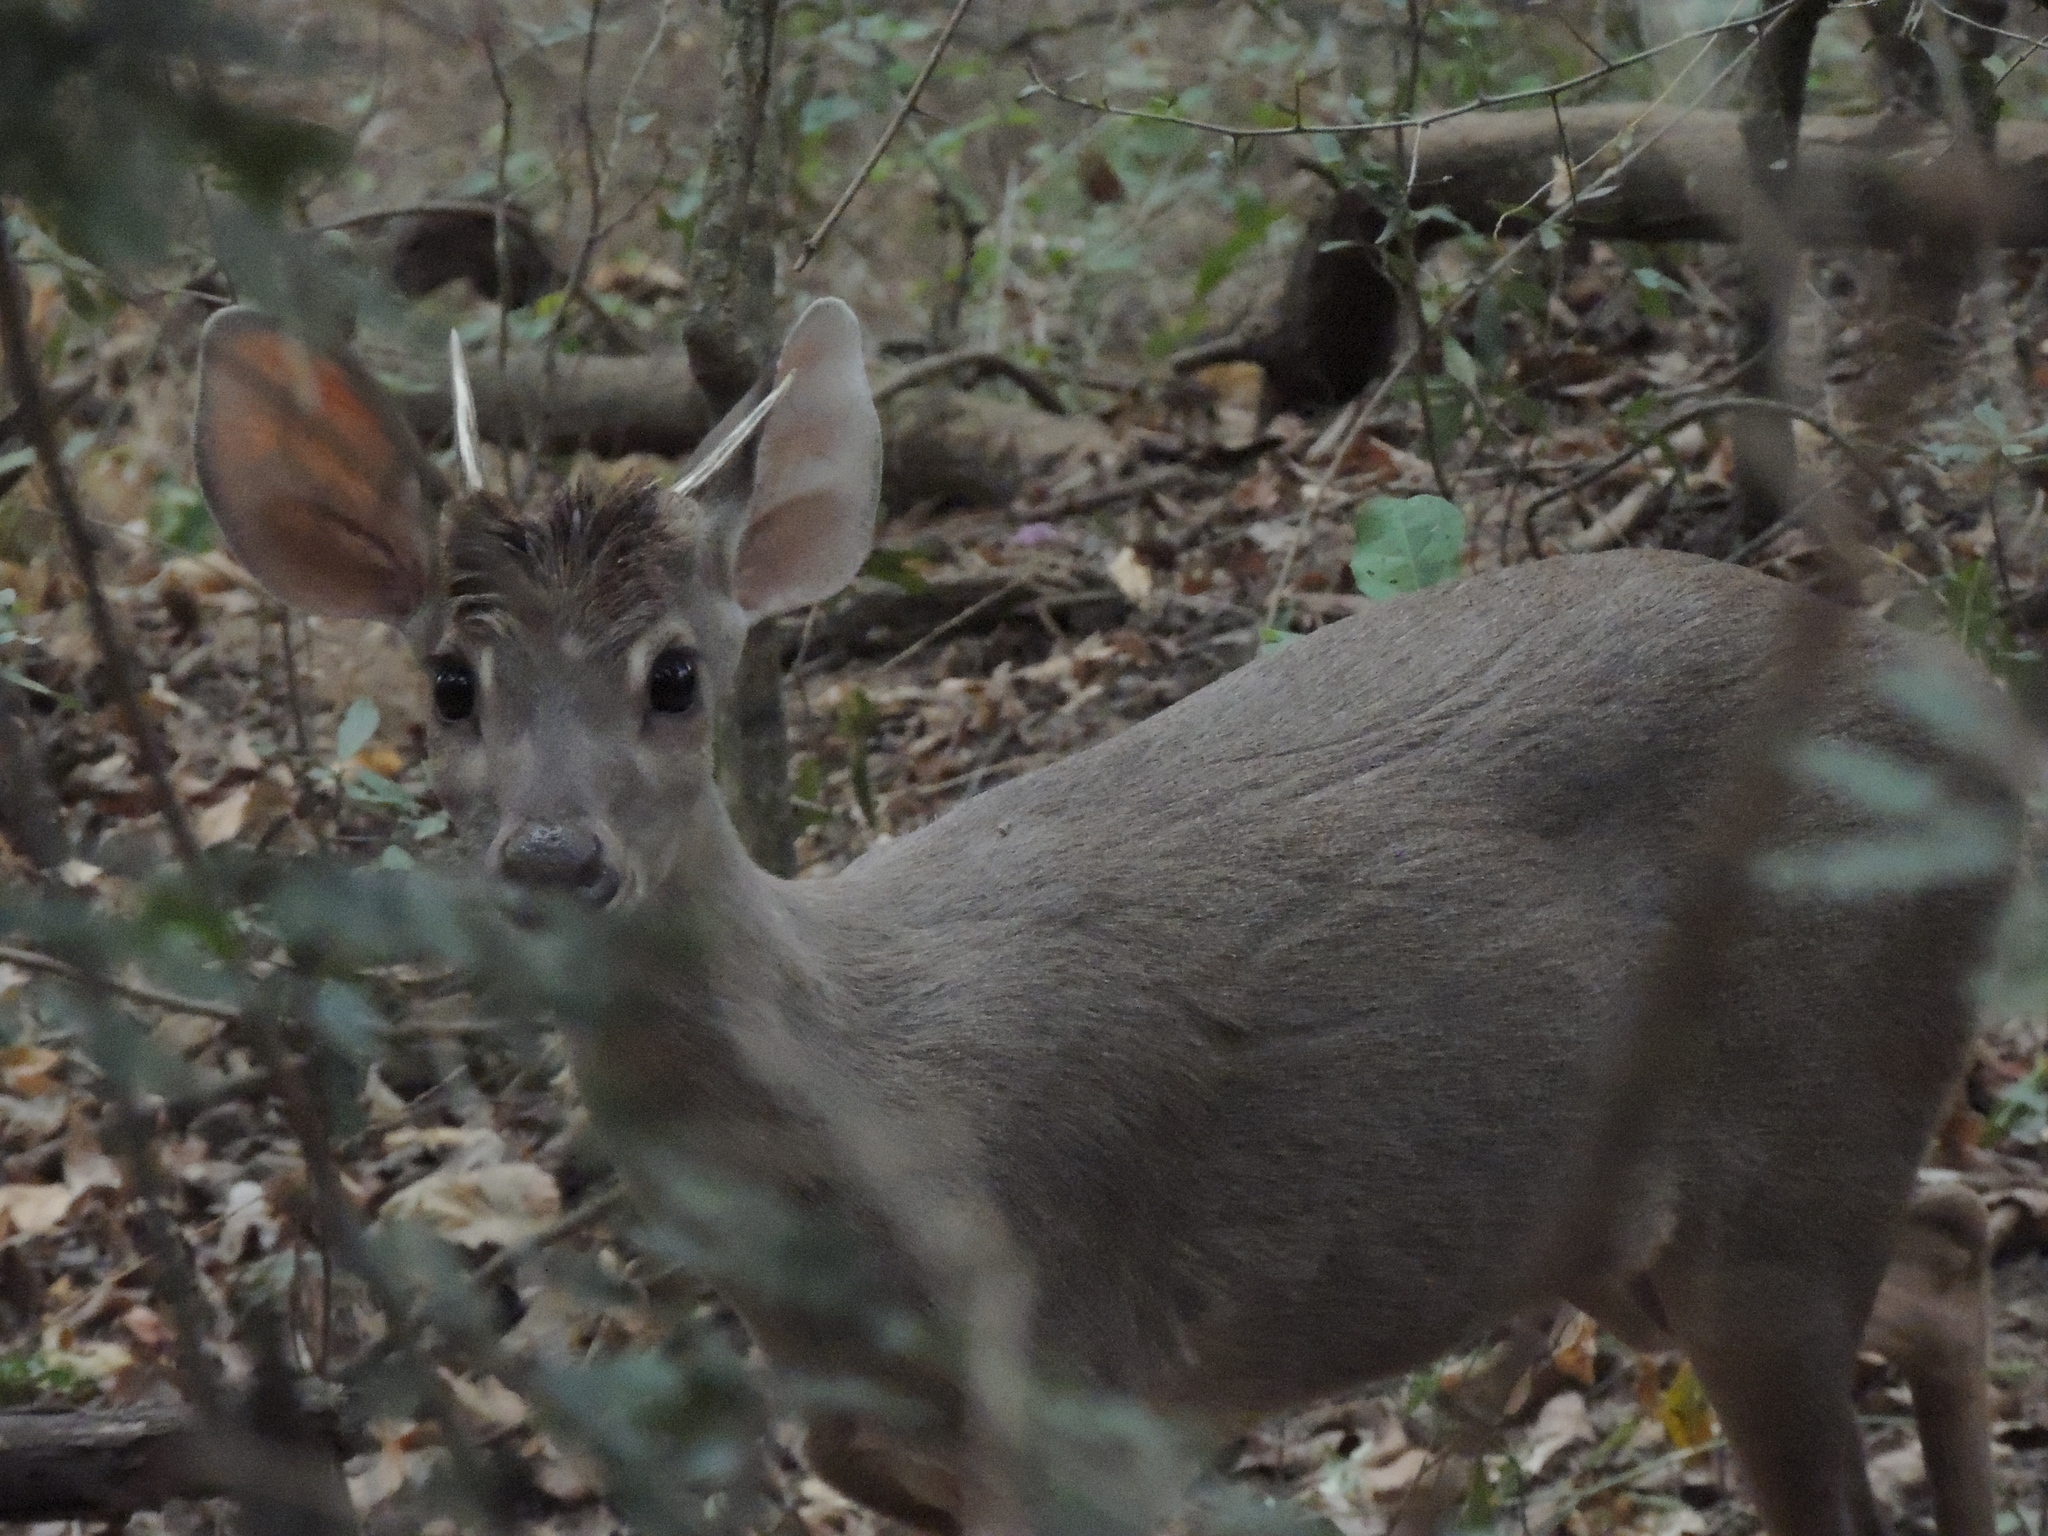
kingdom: Animalia
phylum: Chordata
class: Mammalia
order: Artiodactyla
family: Cervidae
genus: Mazama
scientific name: Mazama gouazoubira
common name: Gray brocket
